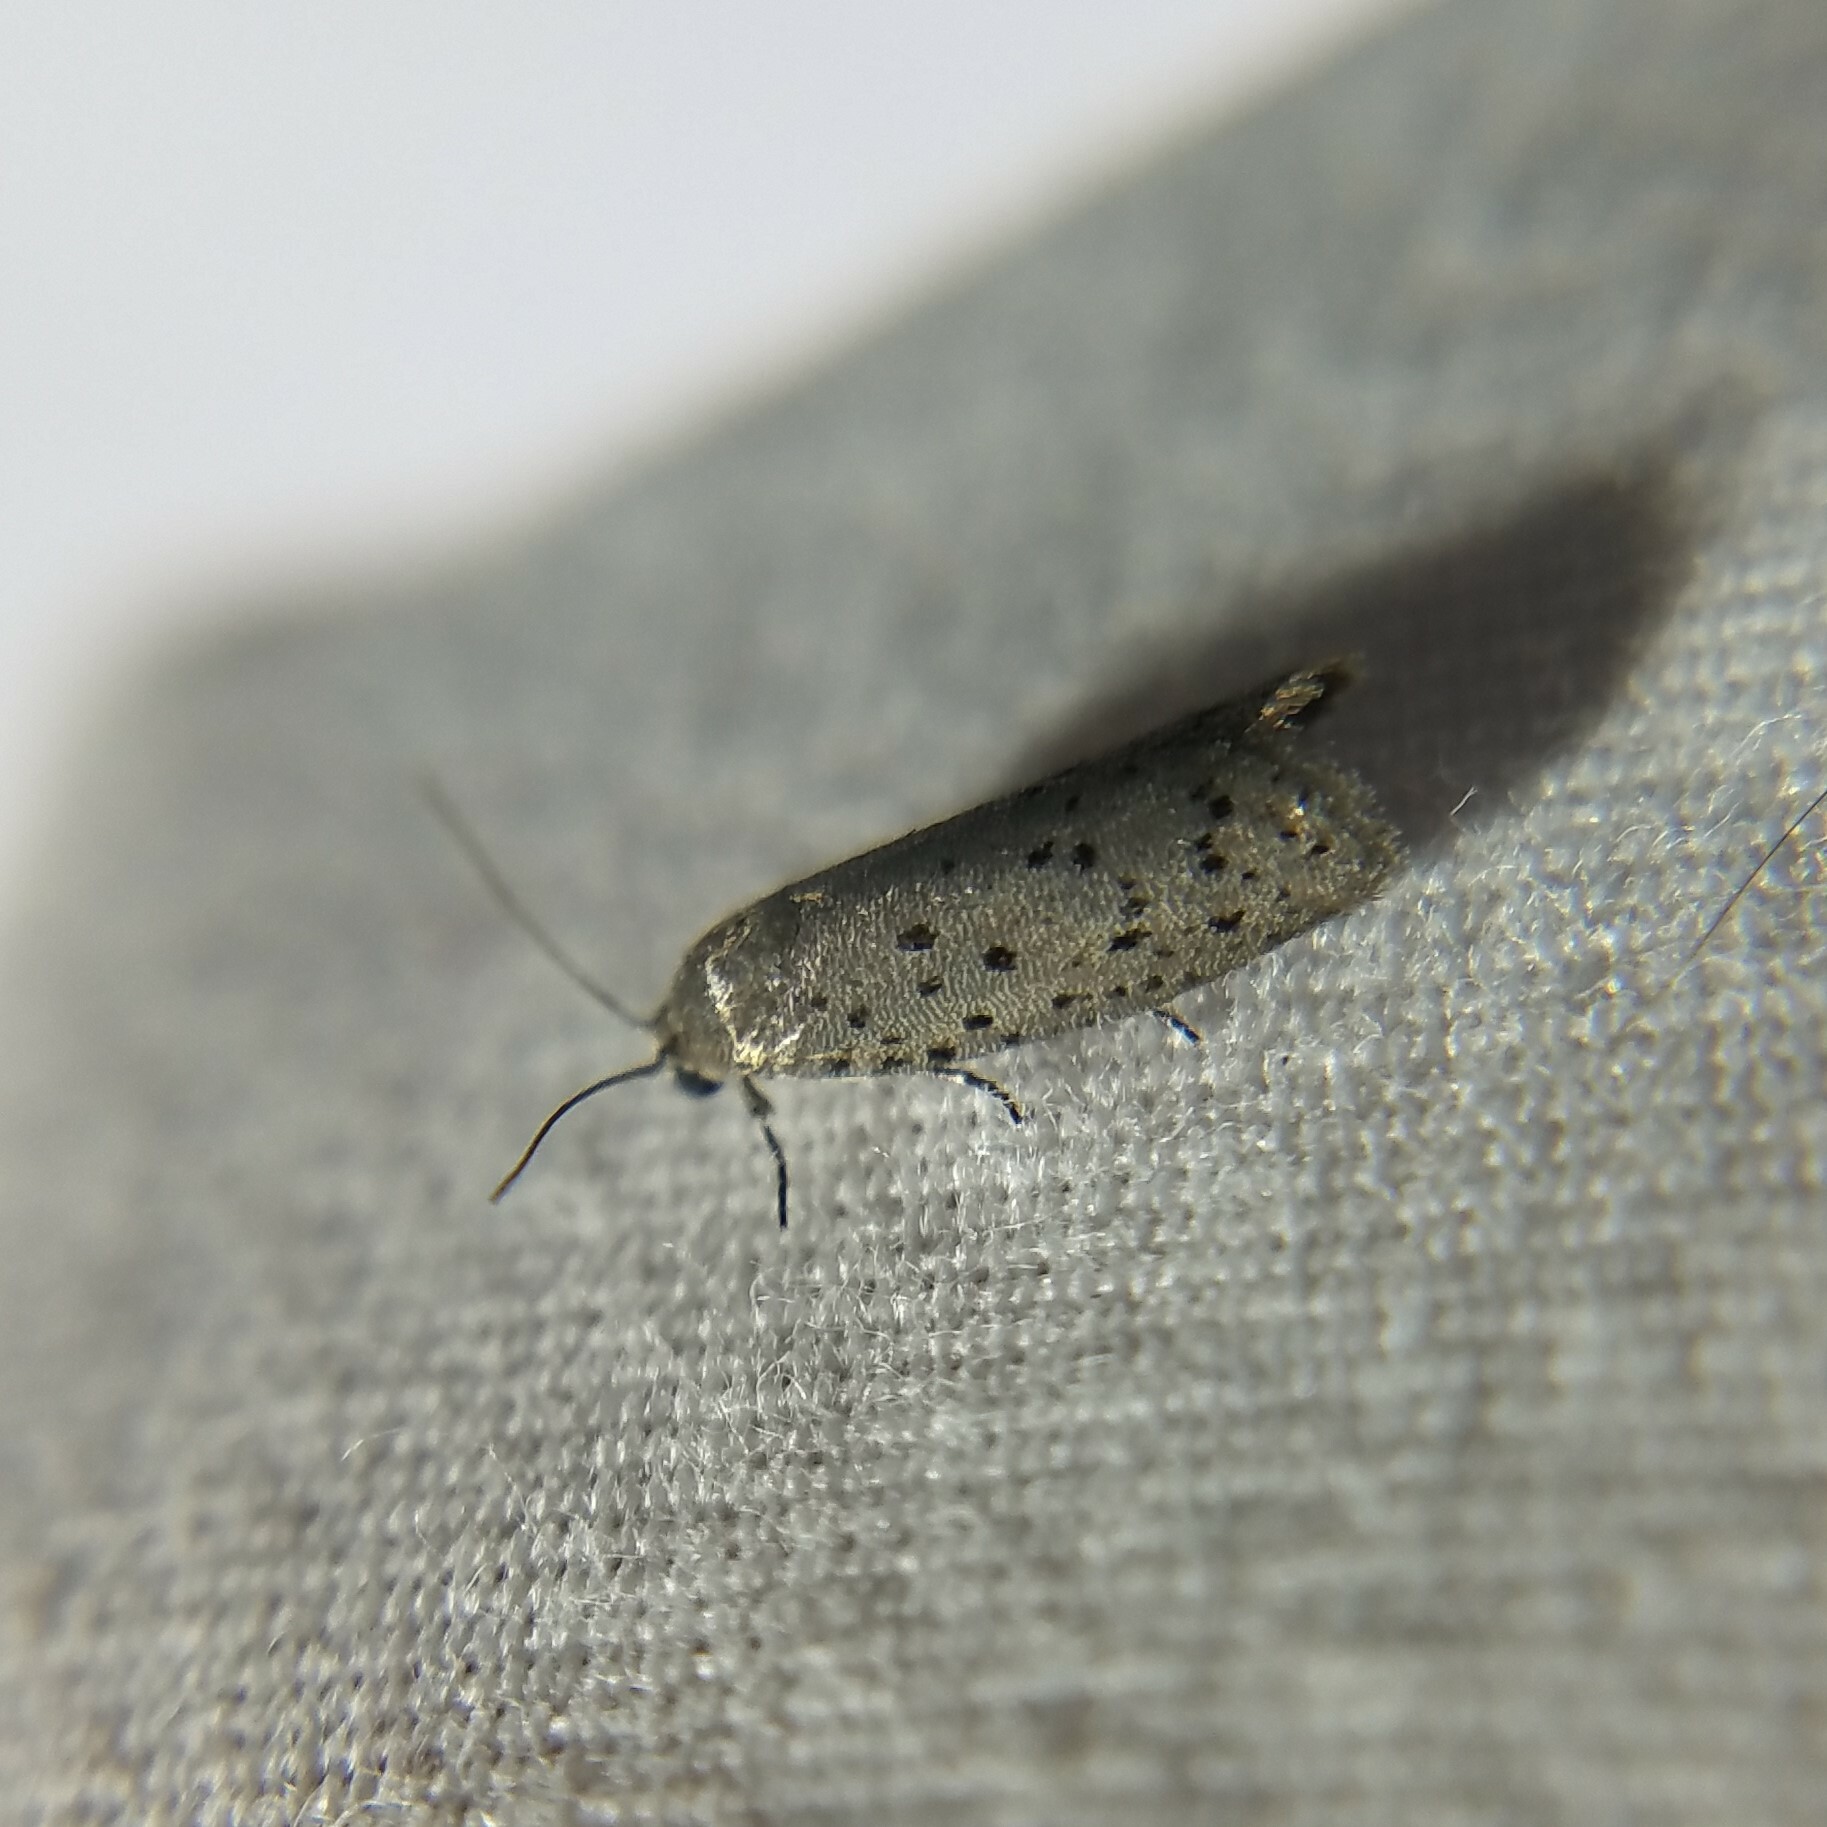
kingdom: Animalia
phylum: Arthropoda
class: Insecta
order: Lepidoptera
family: Galacticidae
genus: Homadaula
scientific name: Homadaula anisocentra
